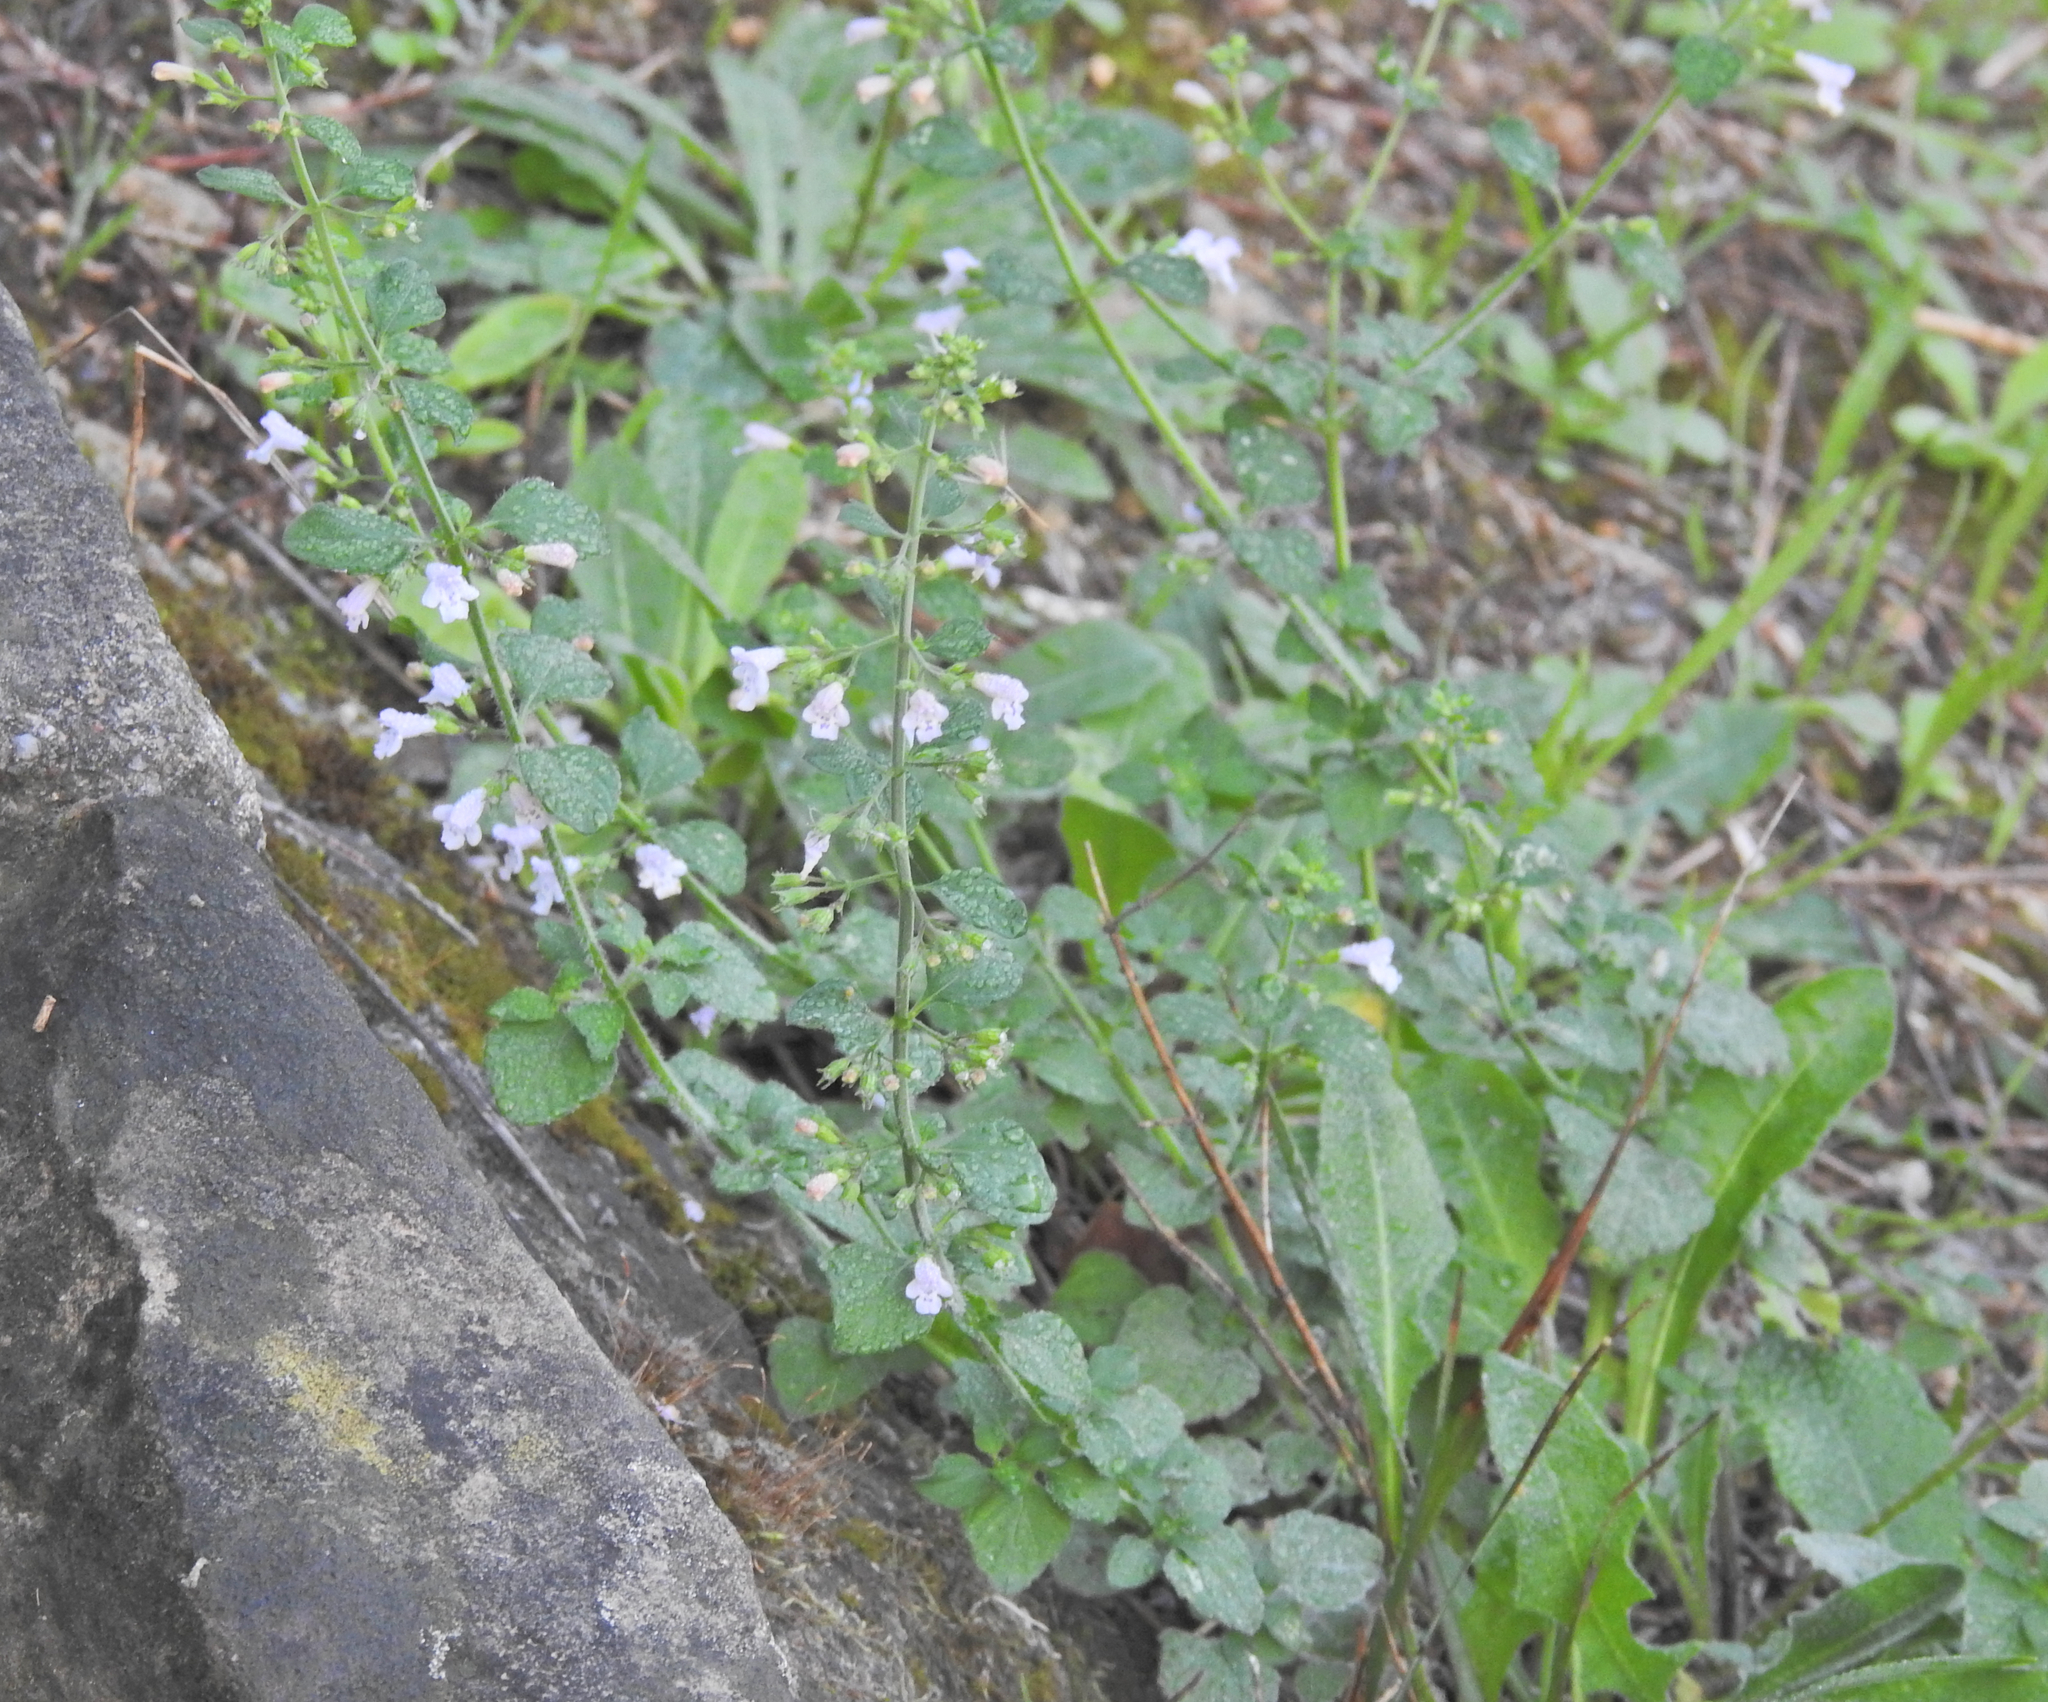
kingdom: Plantae
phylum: Tracheophyta
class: Magnoliopsida
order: Lamiales
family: Lamiaceae
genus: Clinopodium
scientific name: Clinopodium
